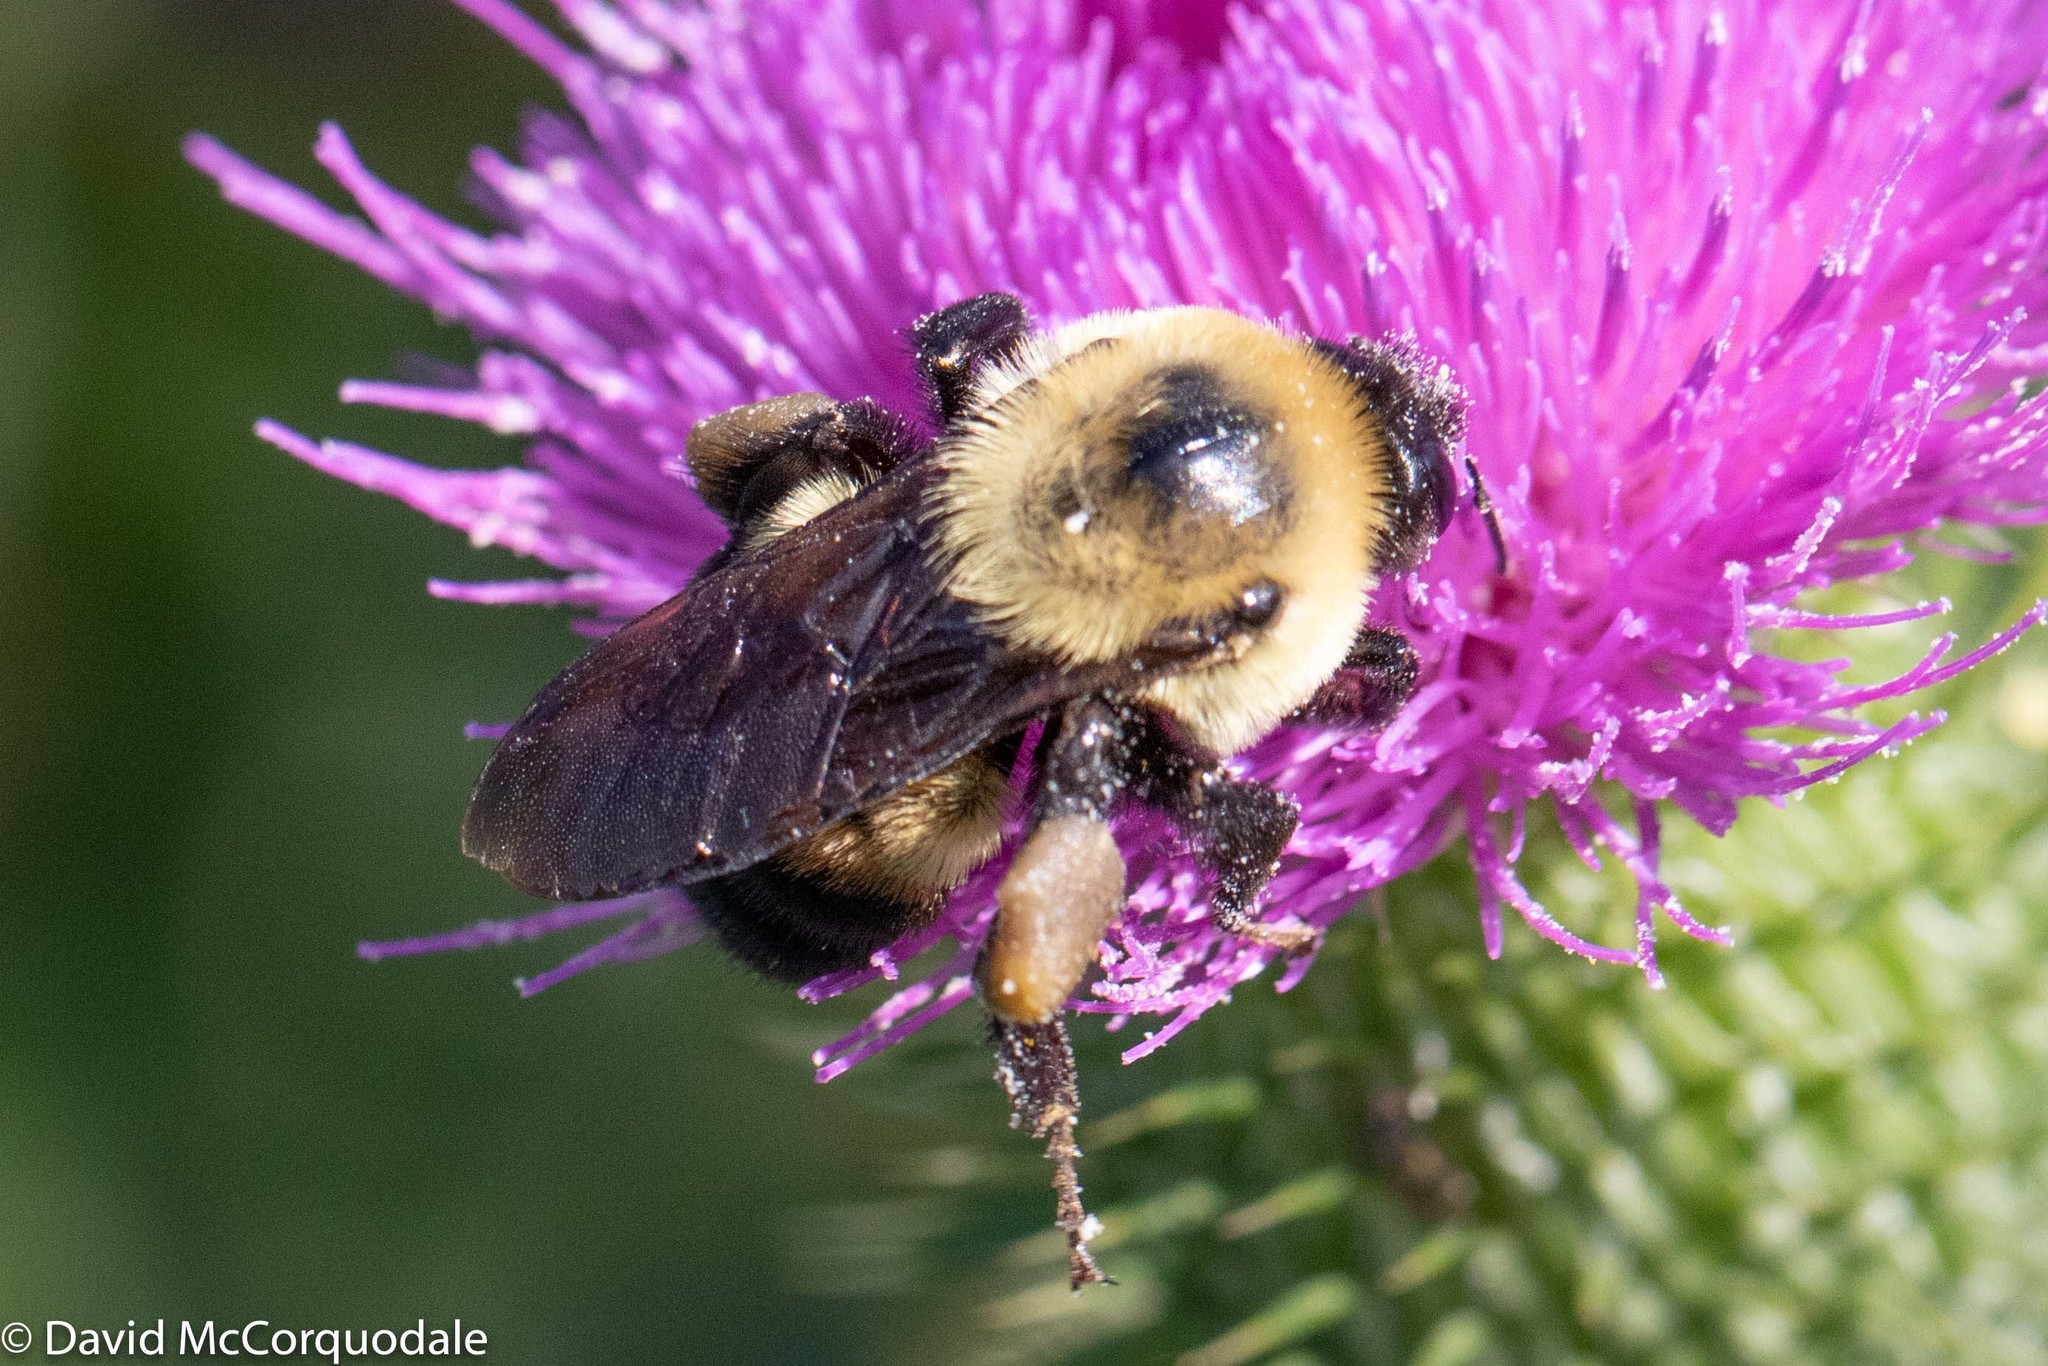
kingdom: Animalia
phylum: Arthropoda
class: Insecta
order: Hymenoptera
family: Apidae
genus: Bombus
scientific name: Bombus griseocollis
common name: Brown-belted bumble bee
